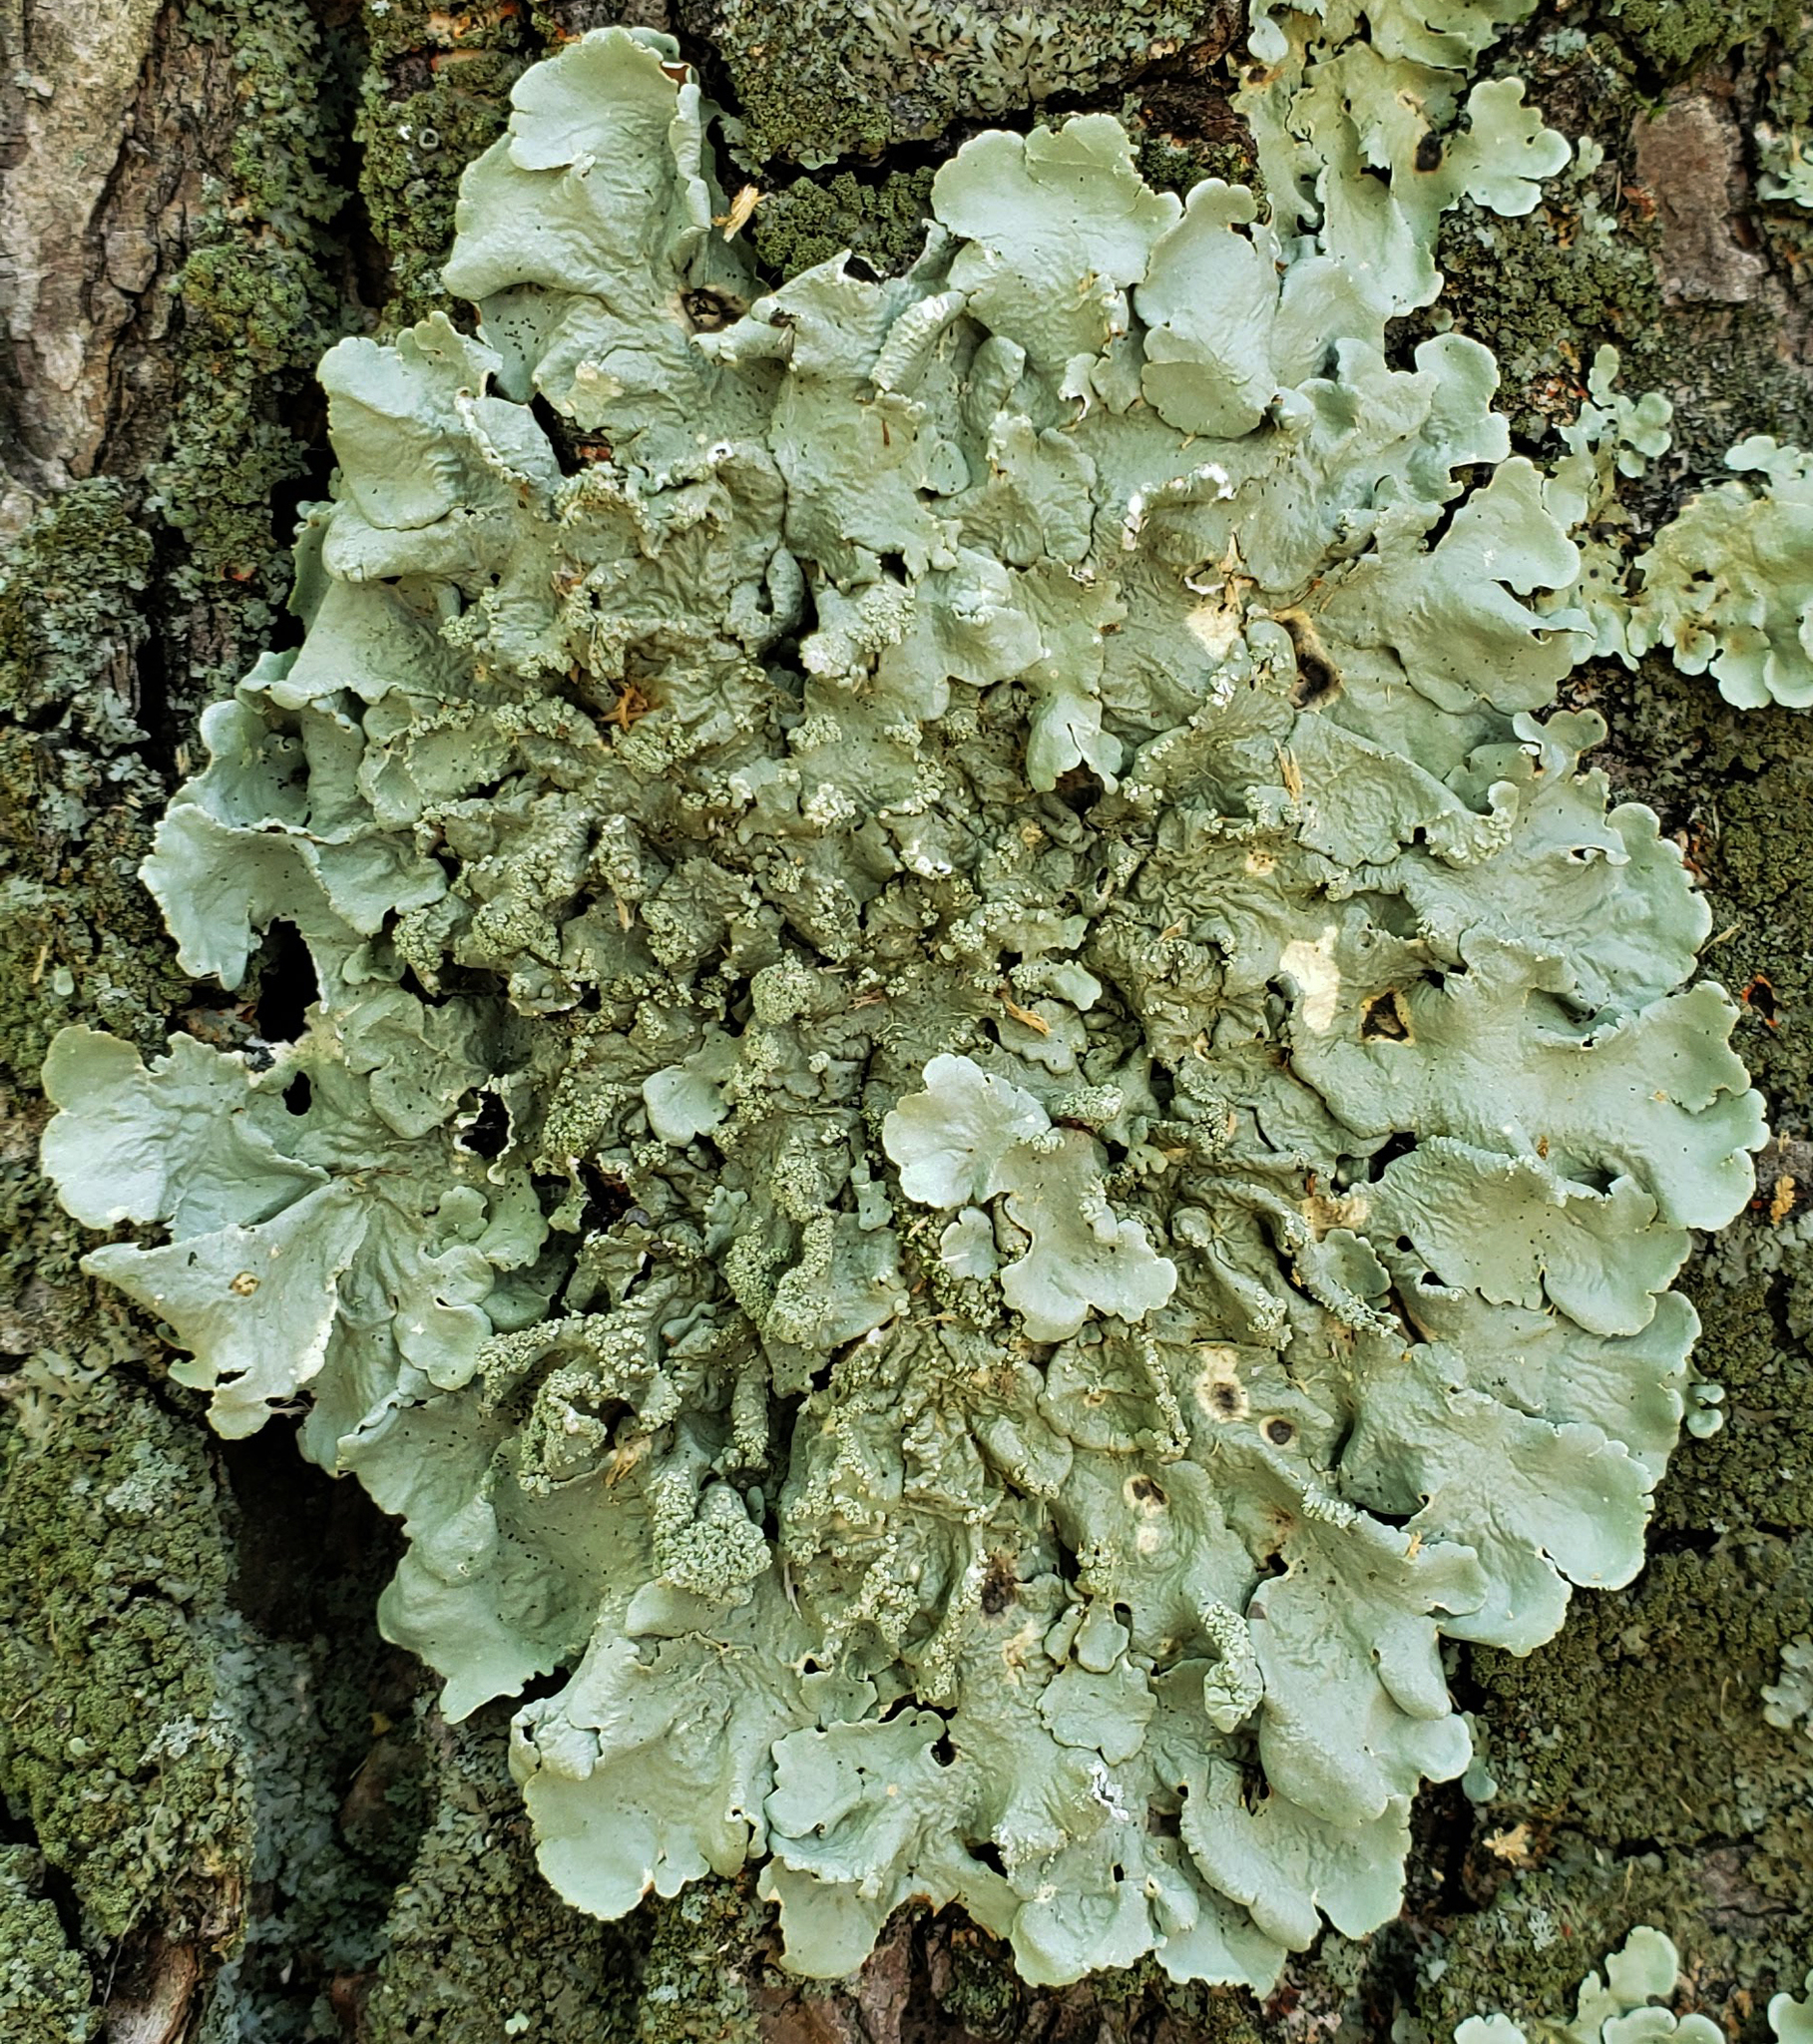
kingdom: Fungi
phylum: Ascomycota
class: Lecanoromycetes
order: Lecanorales
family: Parmeliaceae
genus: Flavoparmelia
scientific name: Flavoparmelia caperata
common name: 40-mile per hour lichen
